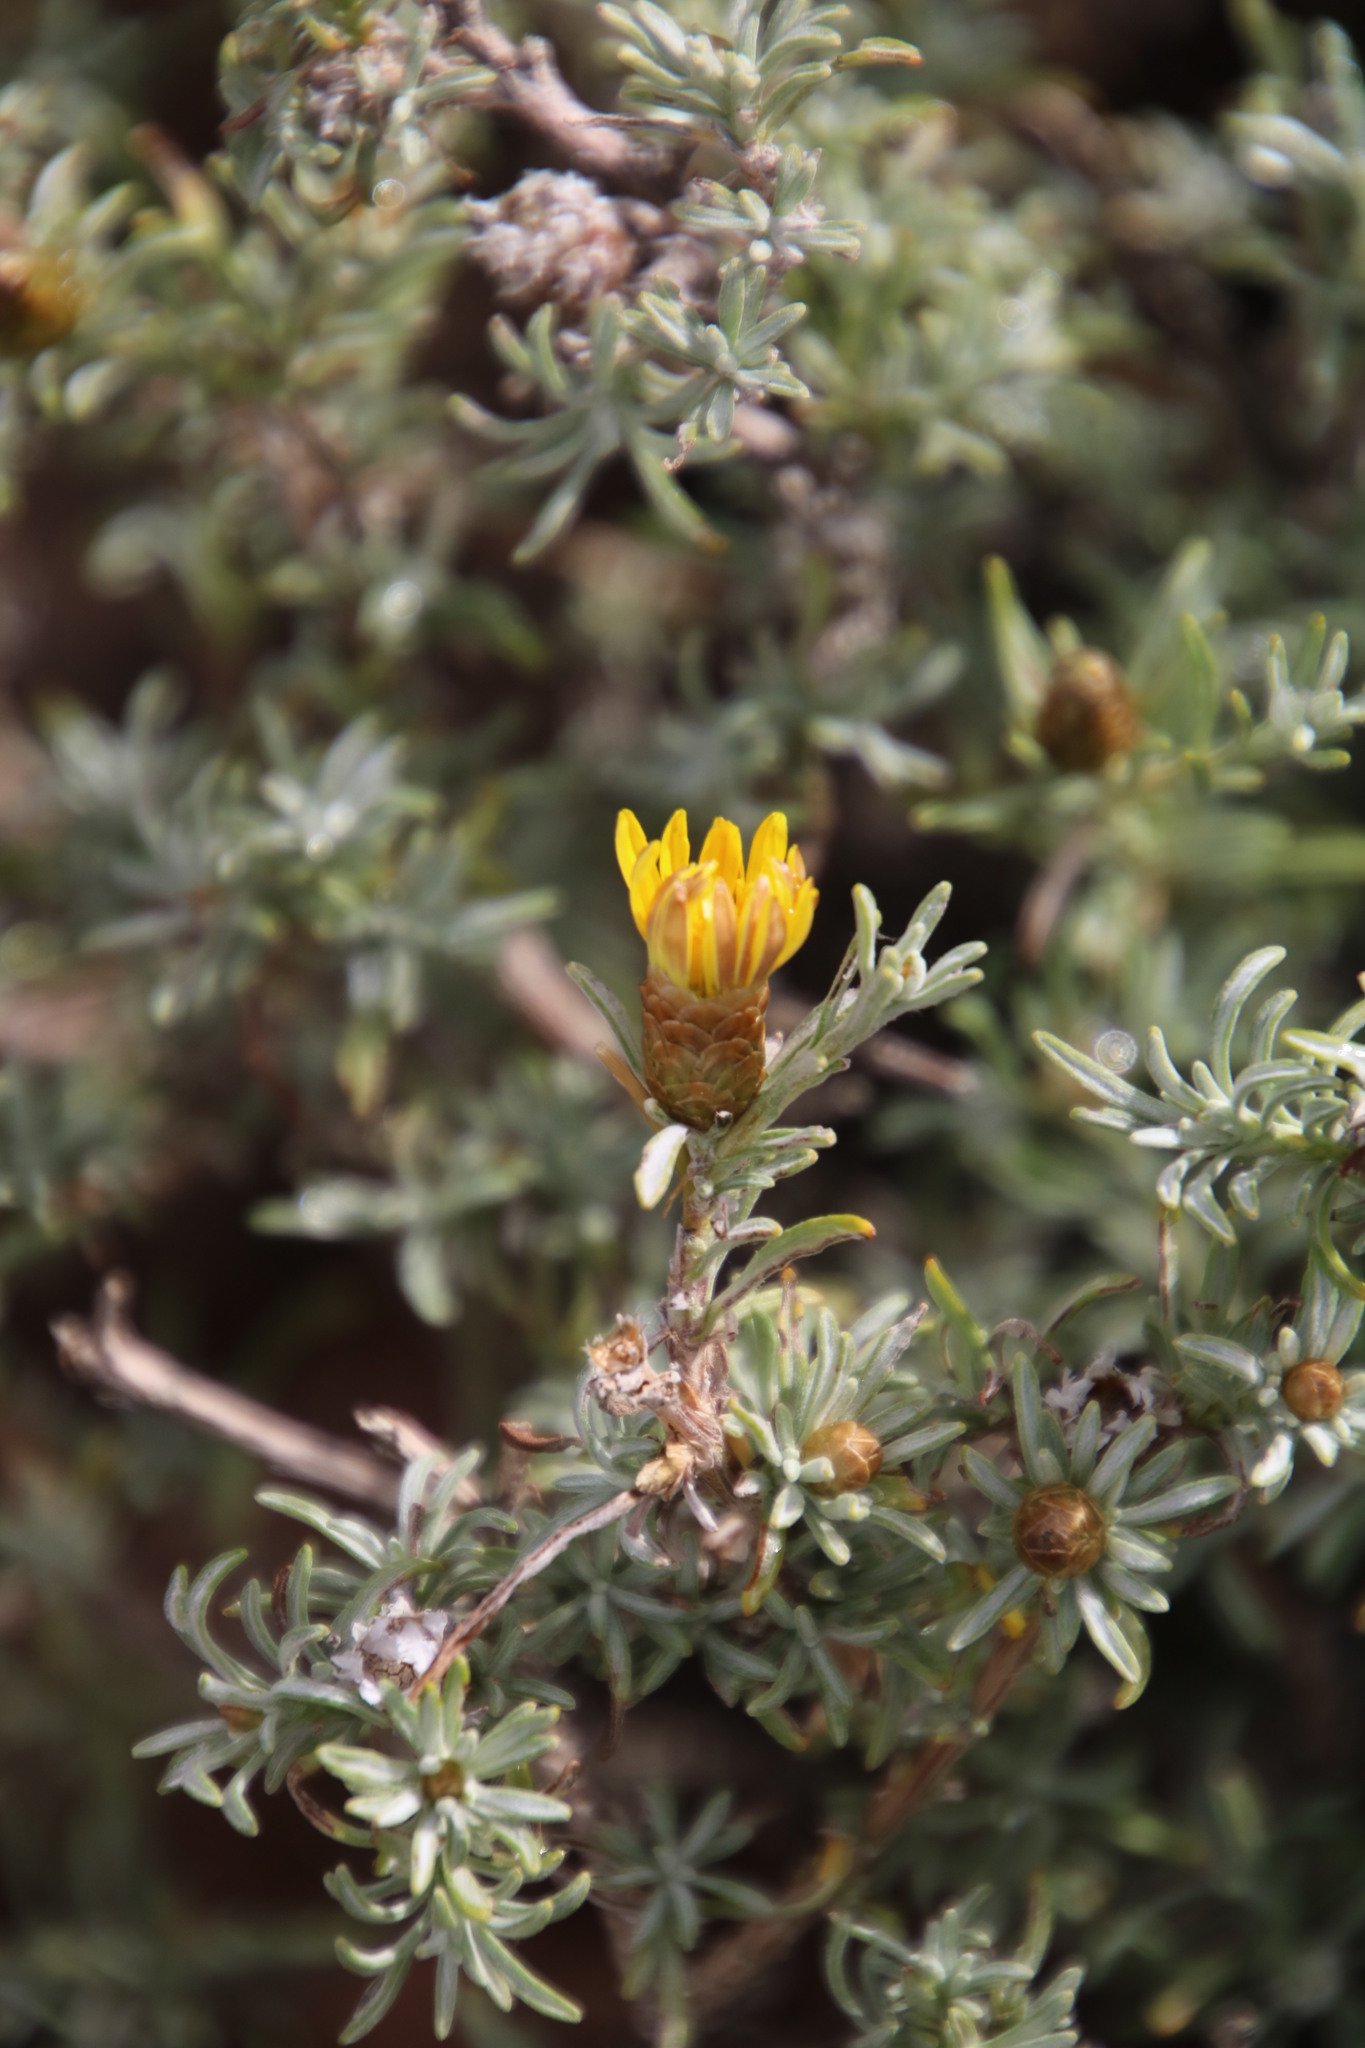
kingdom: Plantae
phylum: Tracheophyta
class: Magnoliopsida
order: Asterales
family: Asteraceae
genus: Oedera
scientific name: Oedera humilis
